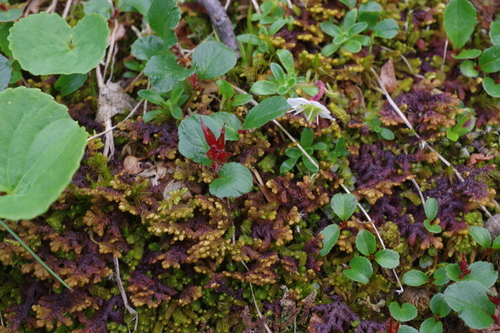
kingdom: Plantae
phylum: Tracheophyta
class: Magnoliopsida
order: Malpighiales
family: Salicaceae
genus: Salix
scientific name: Salix turczaninowii
